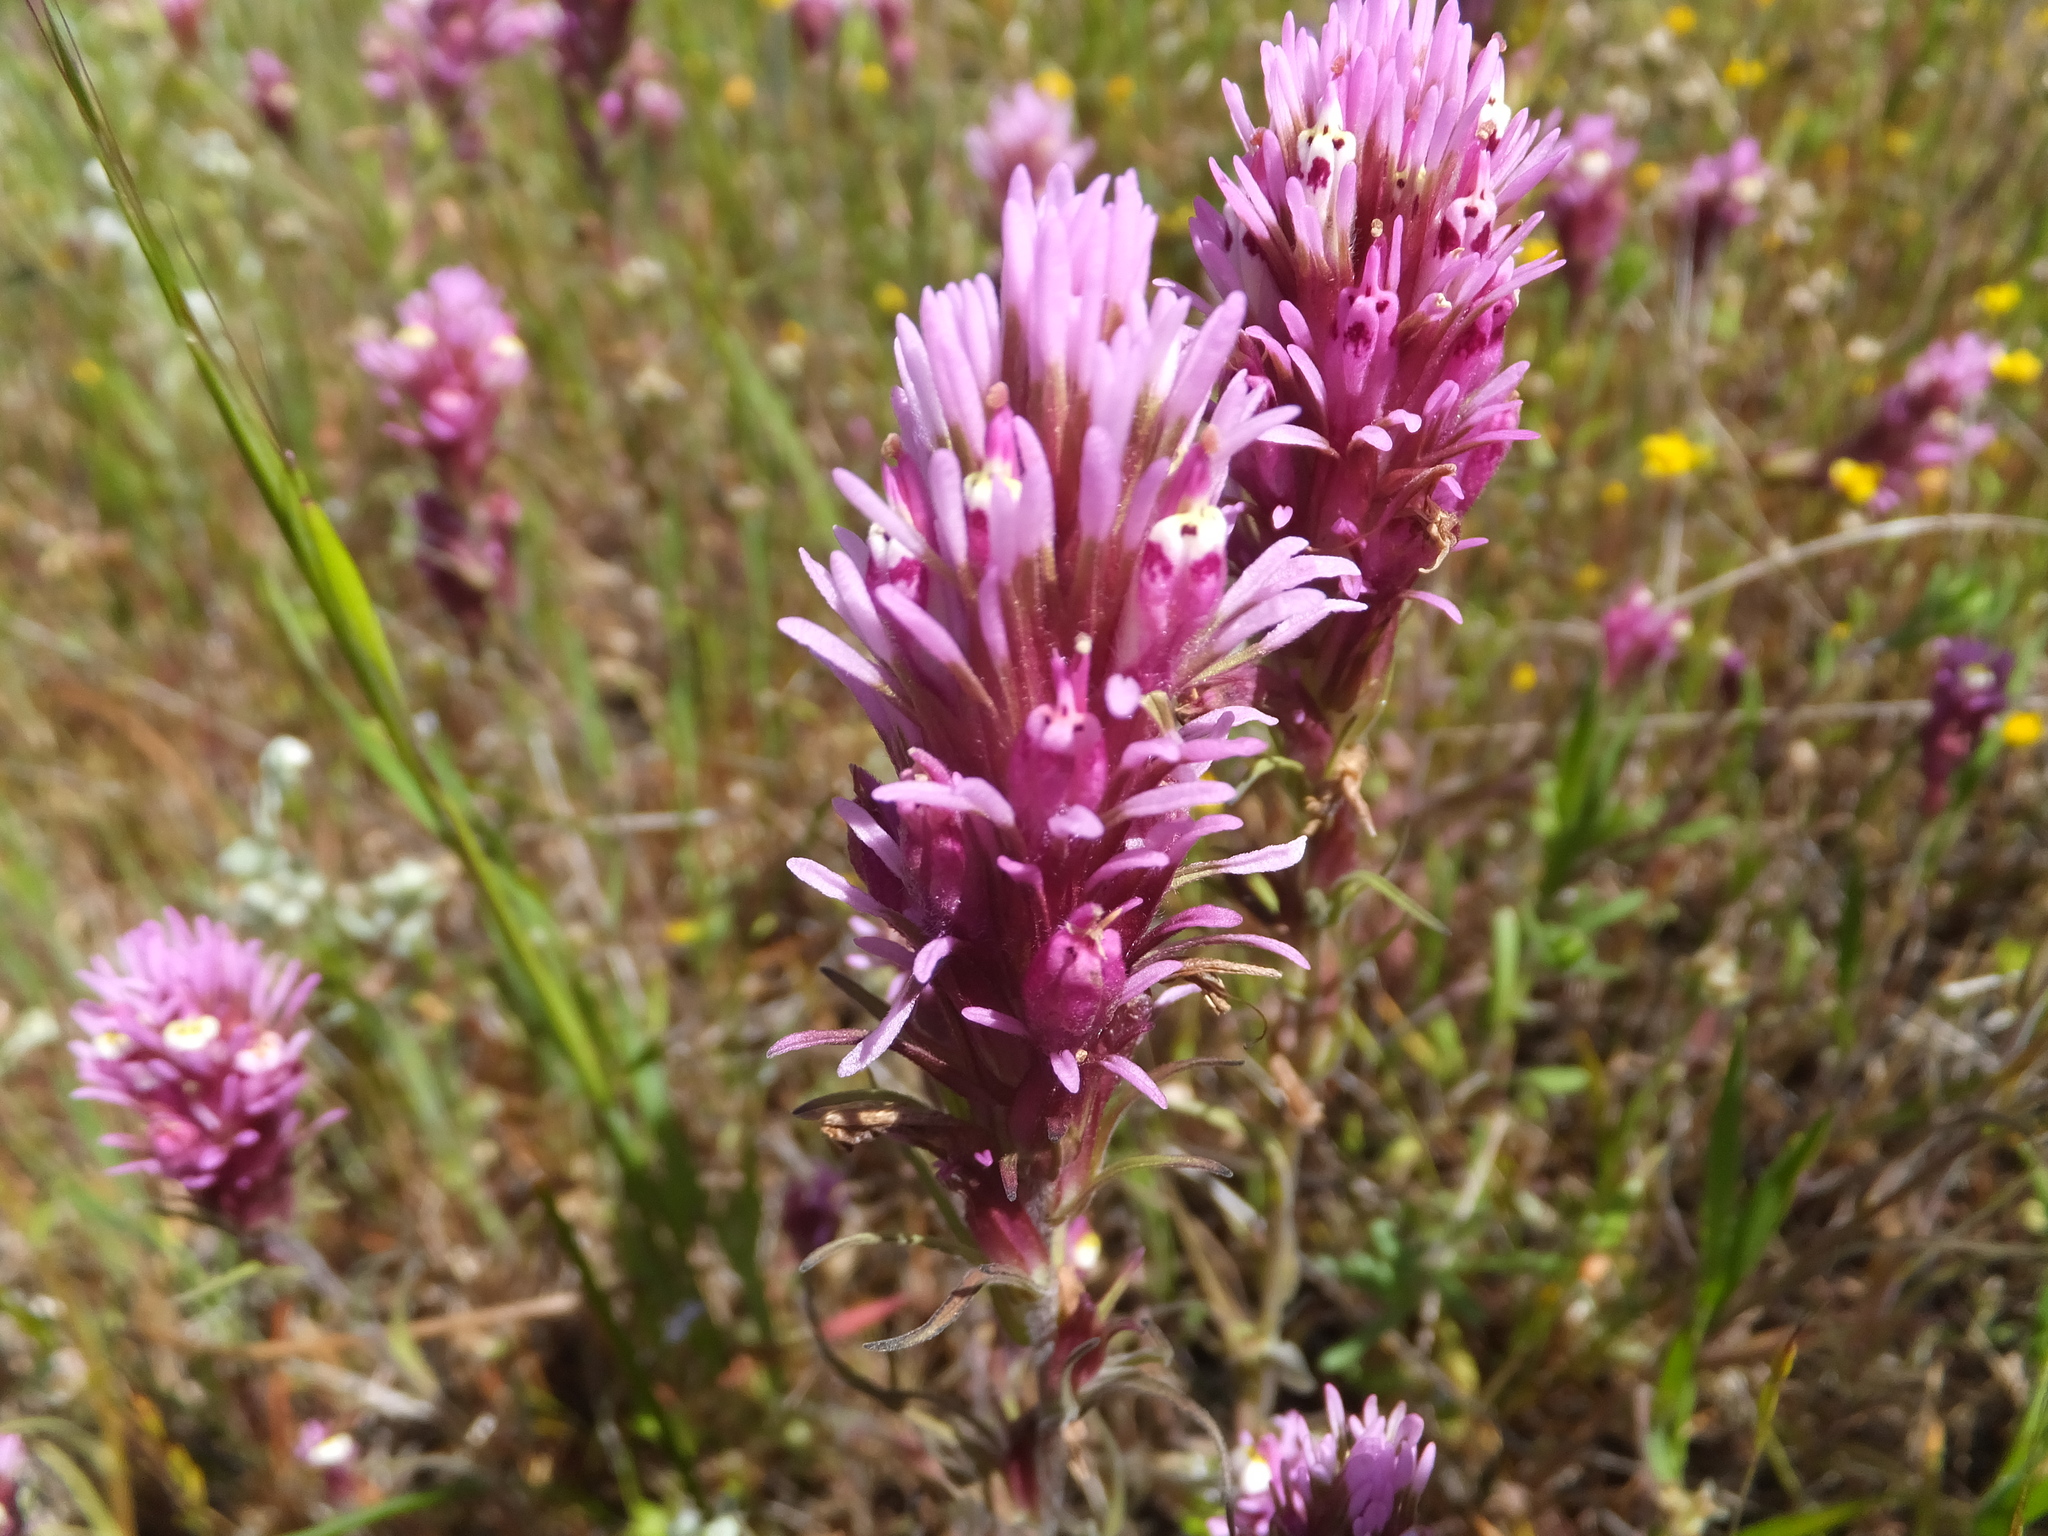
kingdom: Plantae
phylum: Tracheophyta
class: Magnoliopsida
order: Lamiales
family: Orobanchaceae
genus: Castilleja
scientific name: Castilleja densiflora
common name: Dense-flower indian paintbrush
